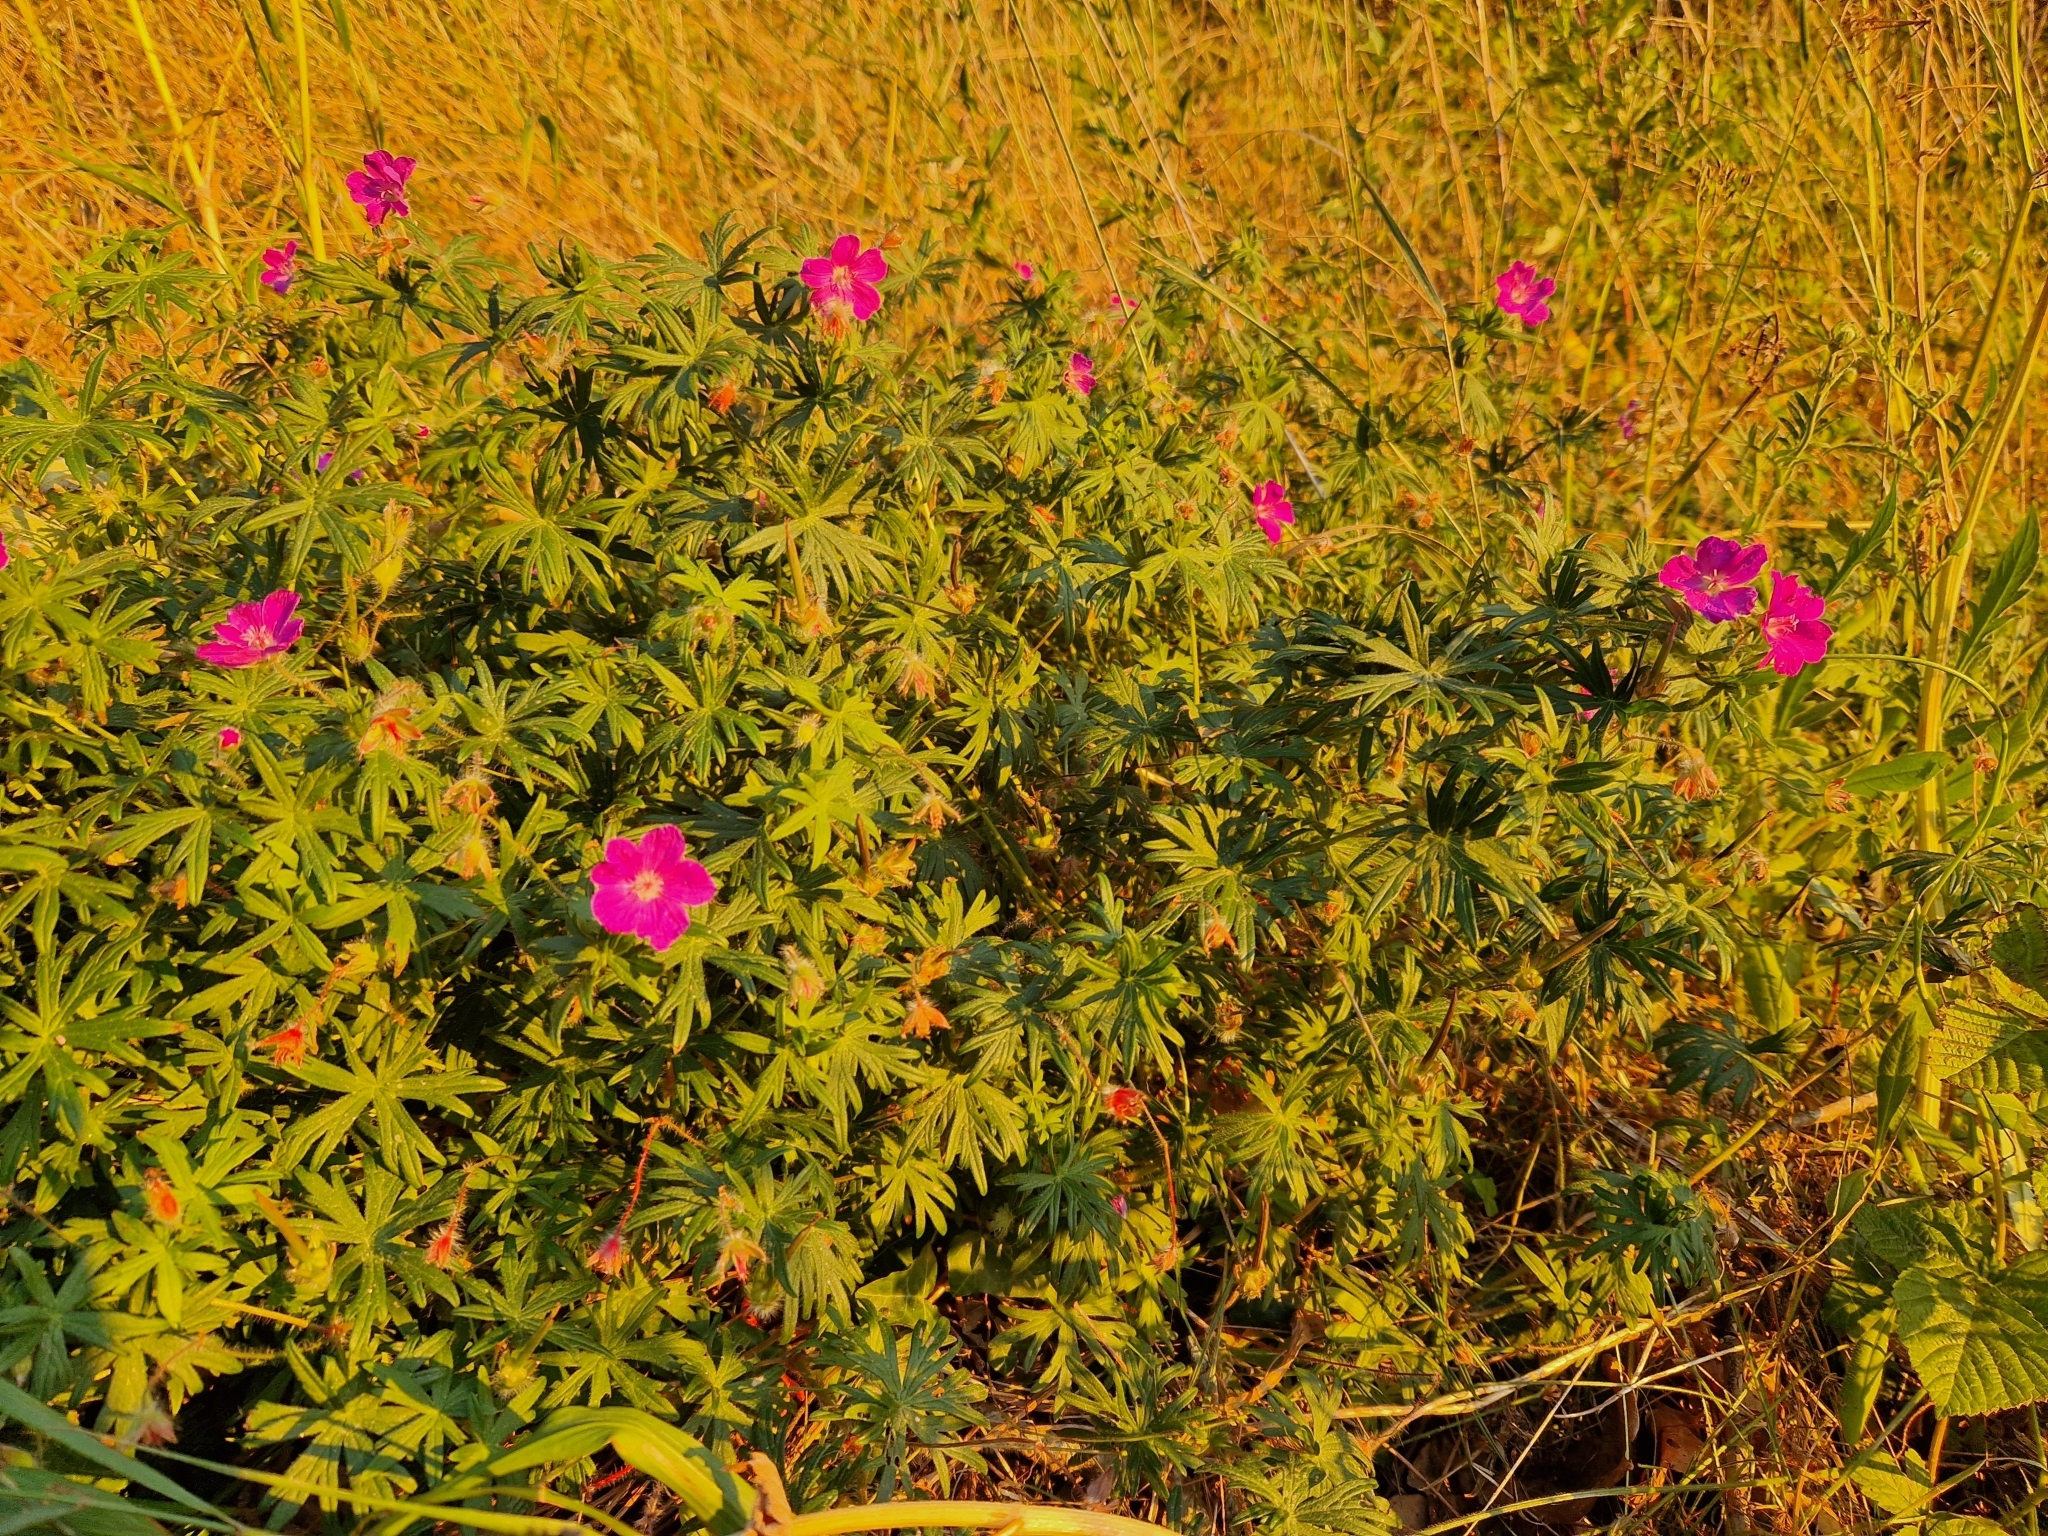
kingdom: Plantae
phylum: Tracheophyta
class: Magnoliopsida
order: Geraniales
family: Geraniaceae
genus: Geranium
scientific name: Geranium sanguineum
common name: Bloody crane's-bill
